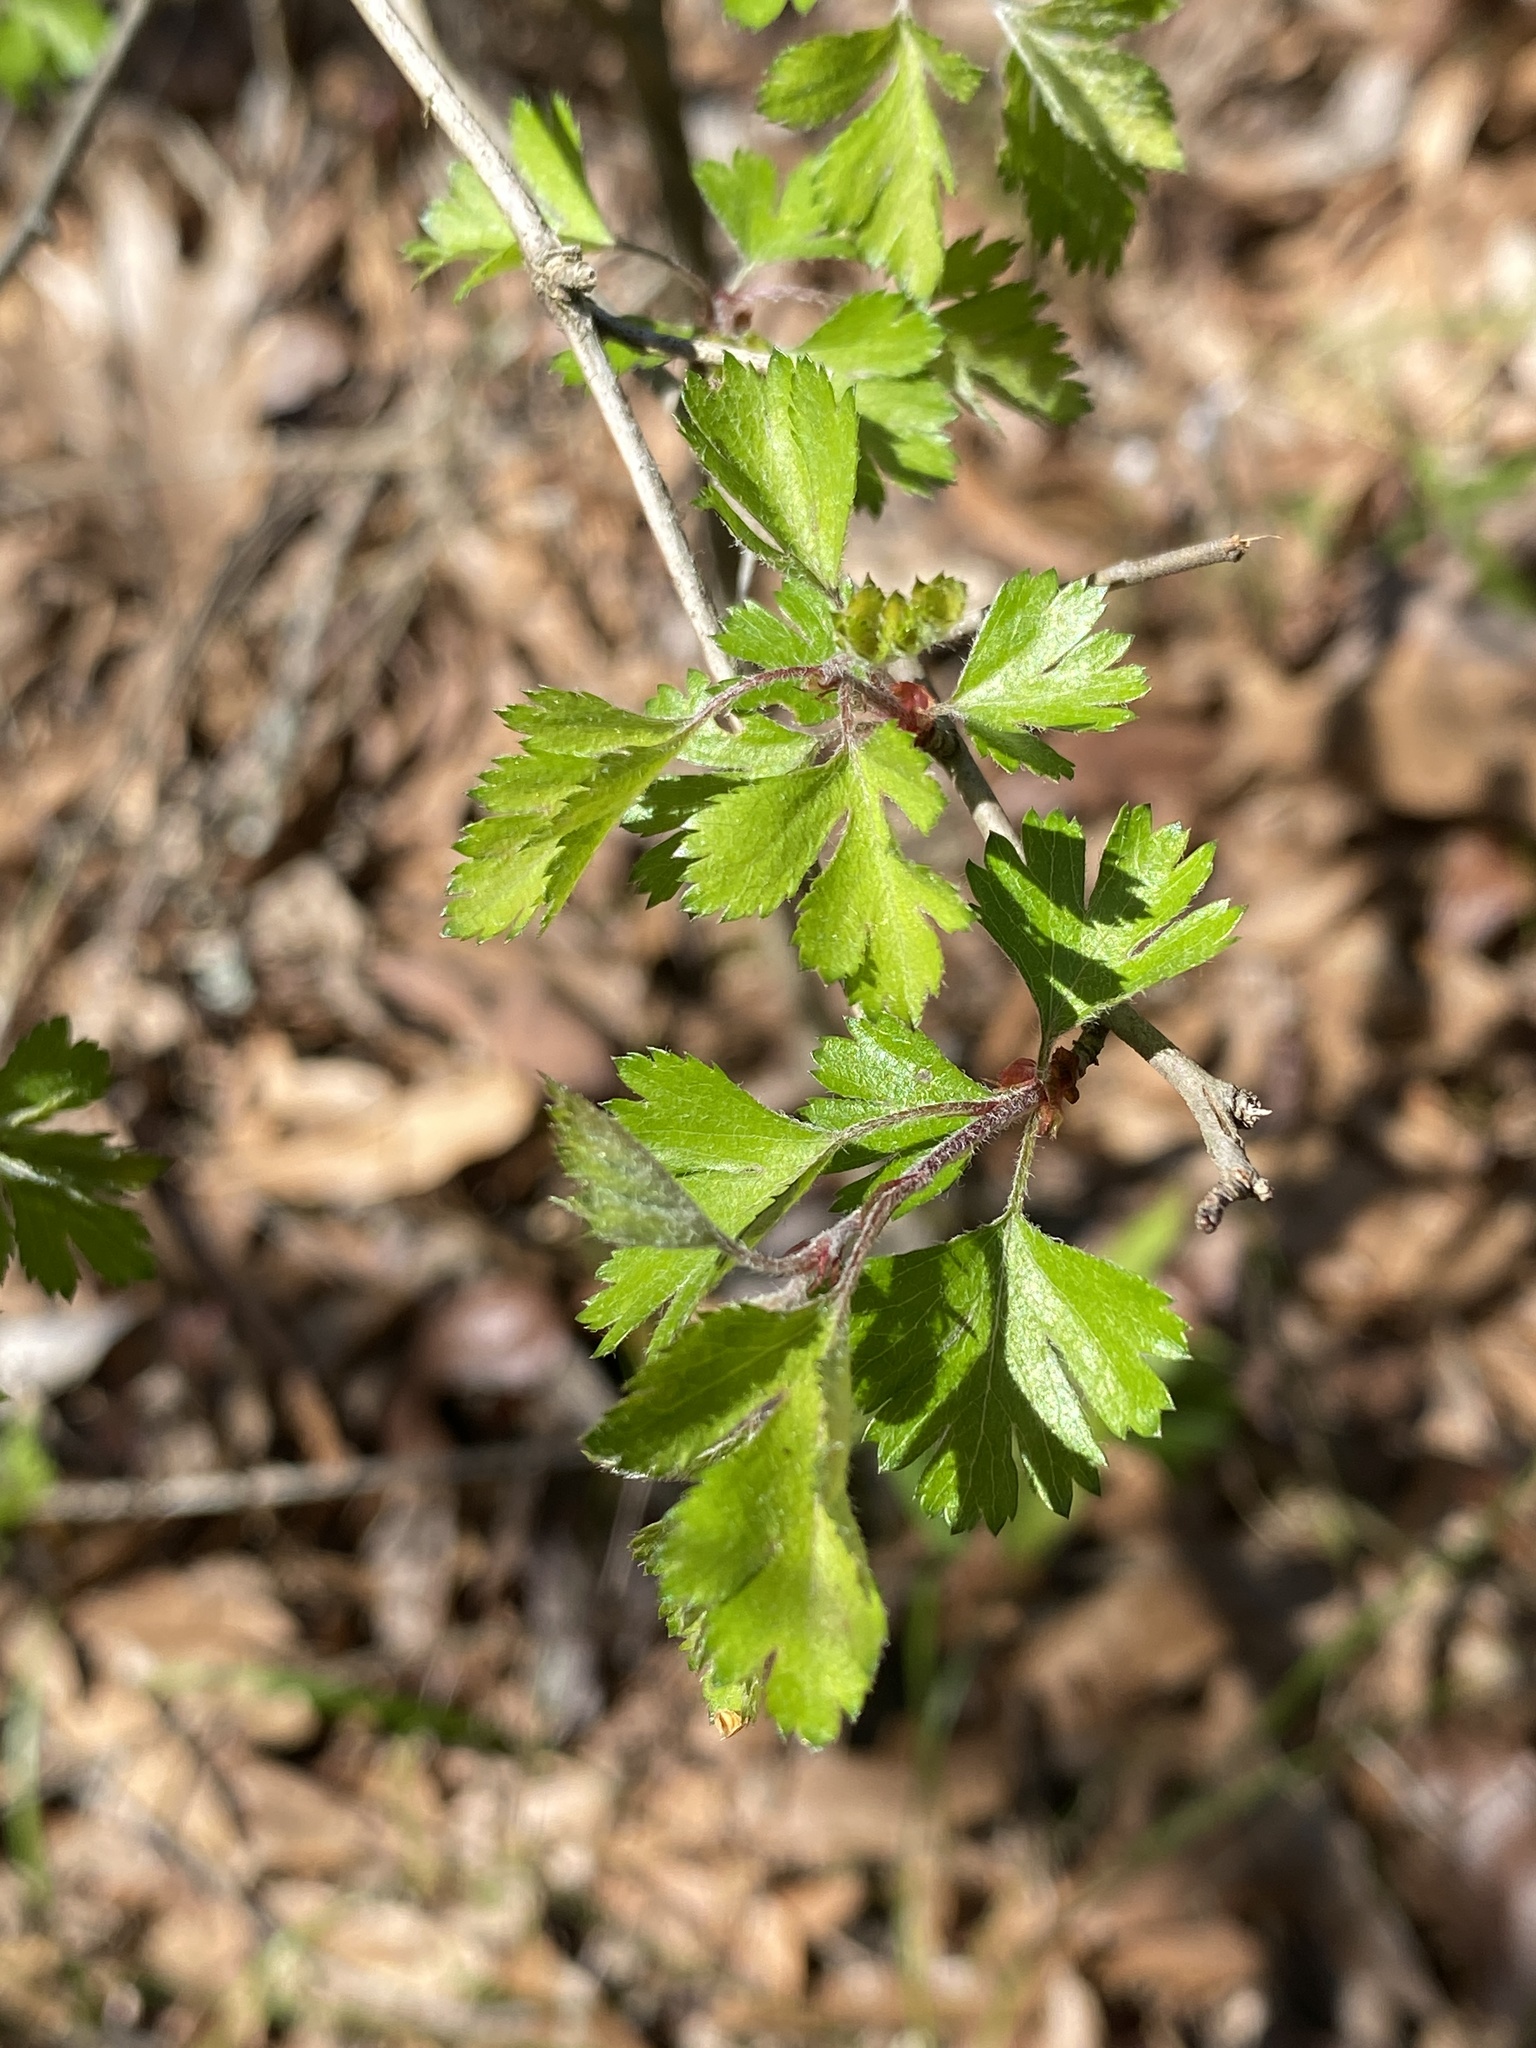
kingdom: Plantae
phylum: Tracheophyta
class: Magnoliopsida
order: Rosales
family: Rosaceae
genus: Crataegus
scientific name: Crataegus marshallii
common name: Parsley-hawthorn
